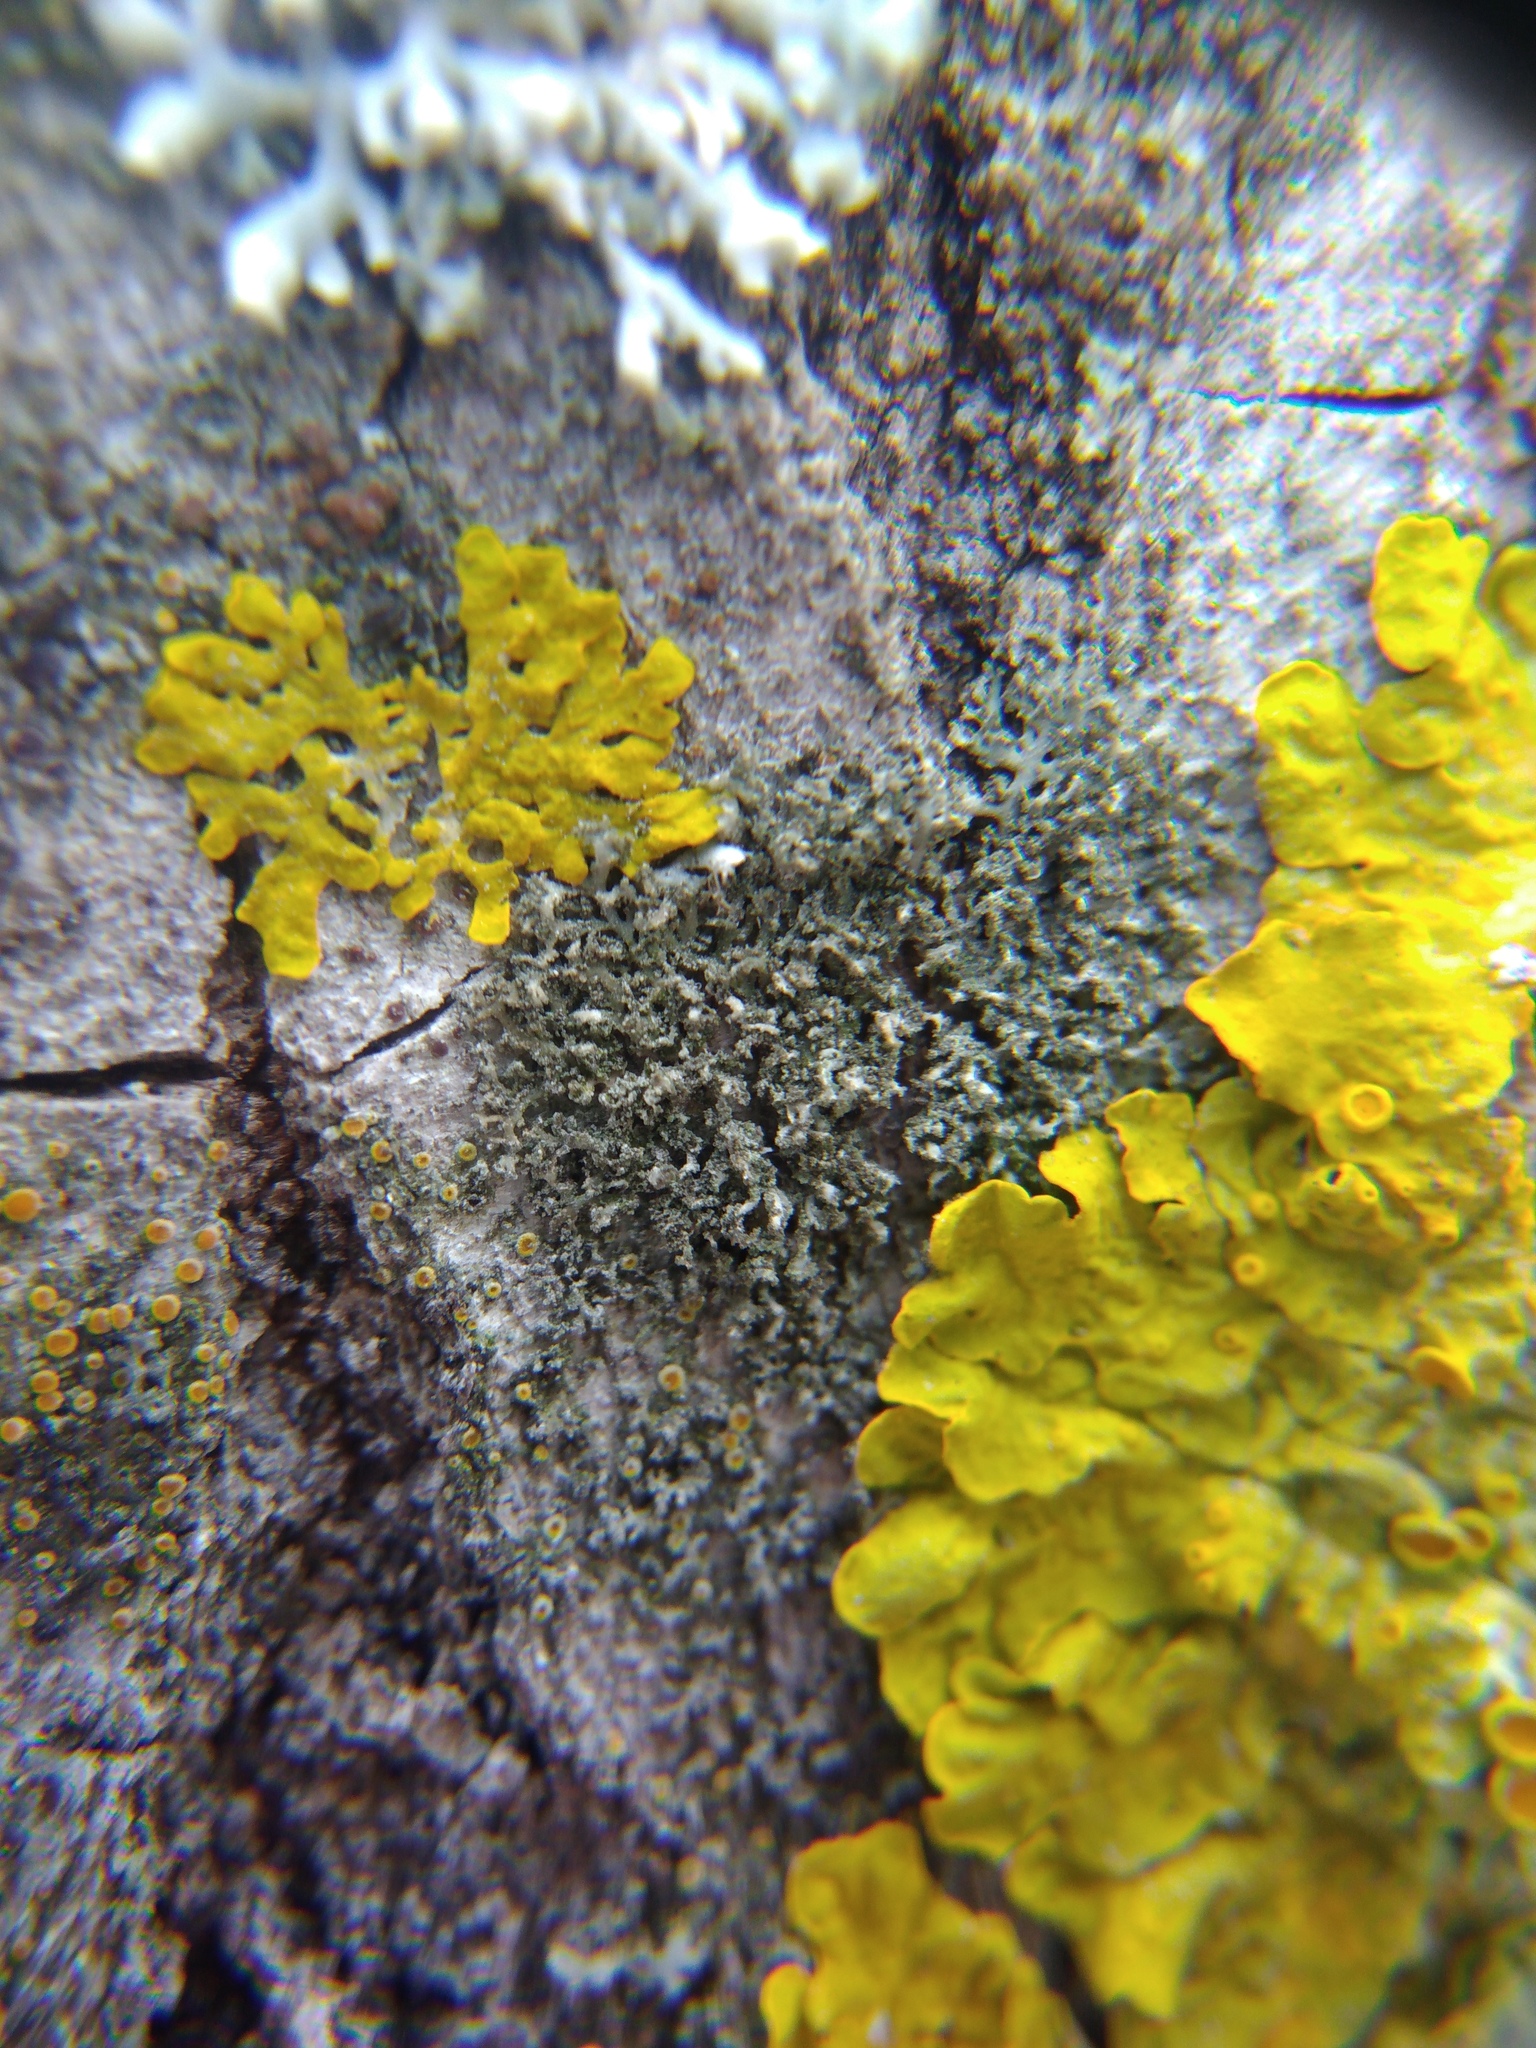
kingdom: Fungi
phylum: Ascomycota
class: Lecanoromycetes
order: Caliciales
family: Physciaceae
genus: Physciella
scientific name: Physciella nigricans
